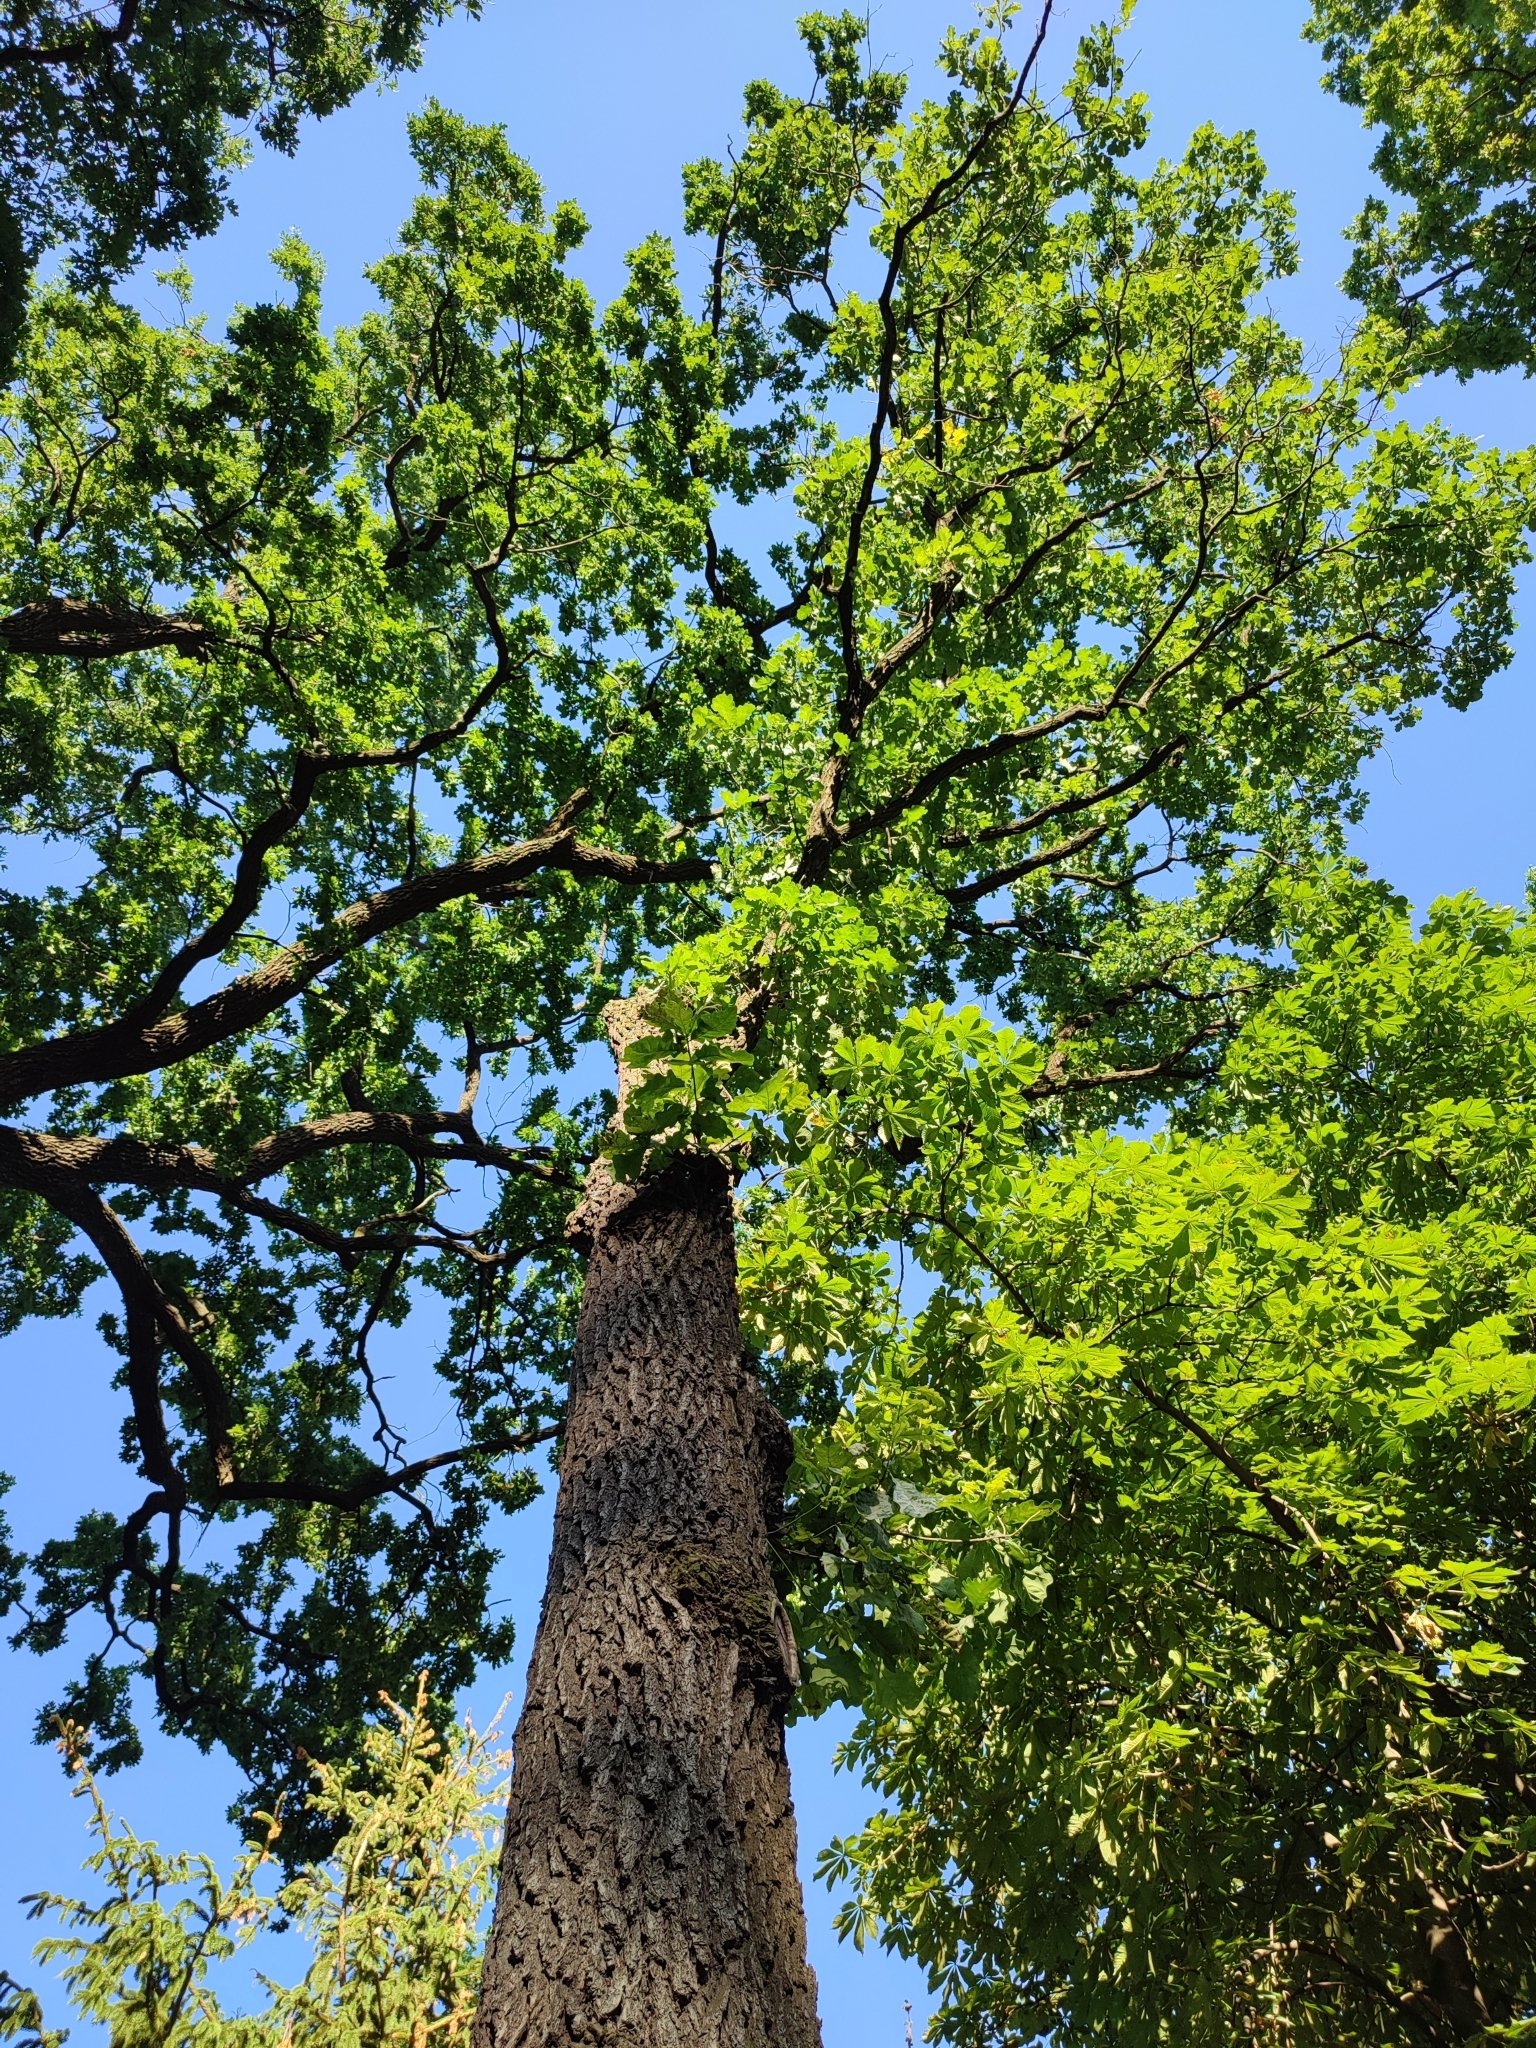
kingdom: Plantae
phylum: Tracheophyta
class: Magnoliopsida
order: Fagales
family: Fagaceae
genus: Quercus
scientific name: Quercus robur
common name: Pedunculate oak
